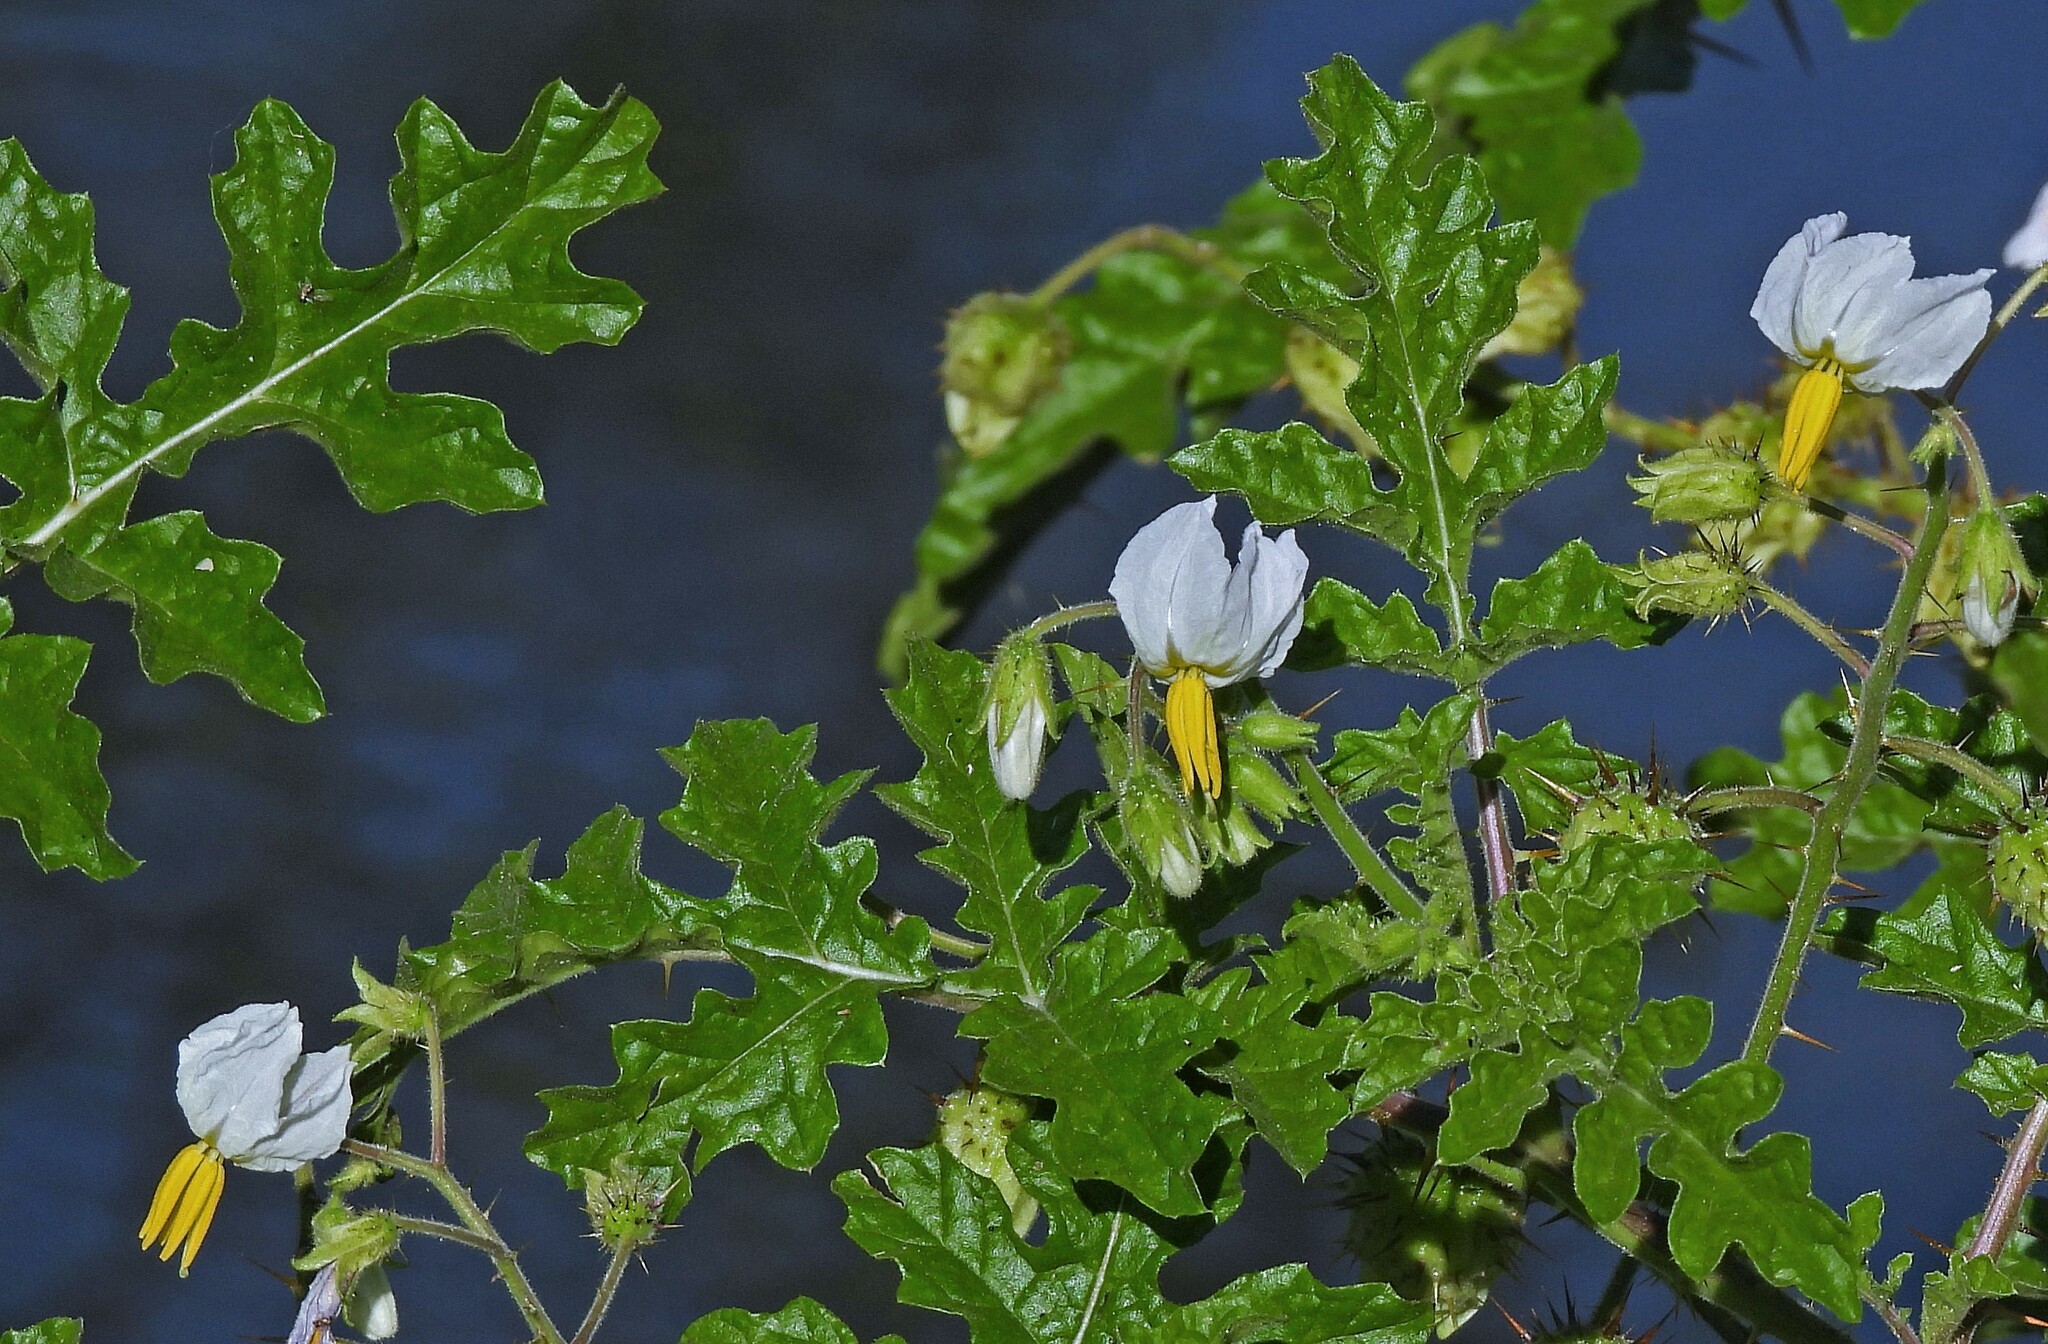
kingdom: Plantae
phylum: Tracheophyta
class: Magnoliopsida
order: Solanales
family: Solanaceae
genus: Solanum
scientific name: Solanum sisymbriifolium
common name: Red buffalo-bur
